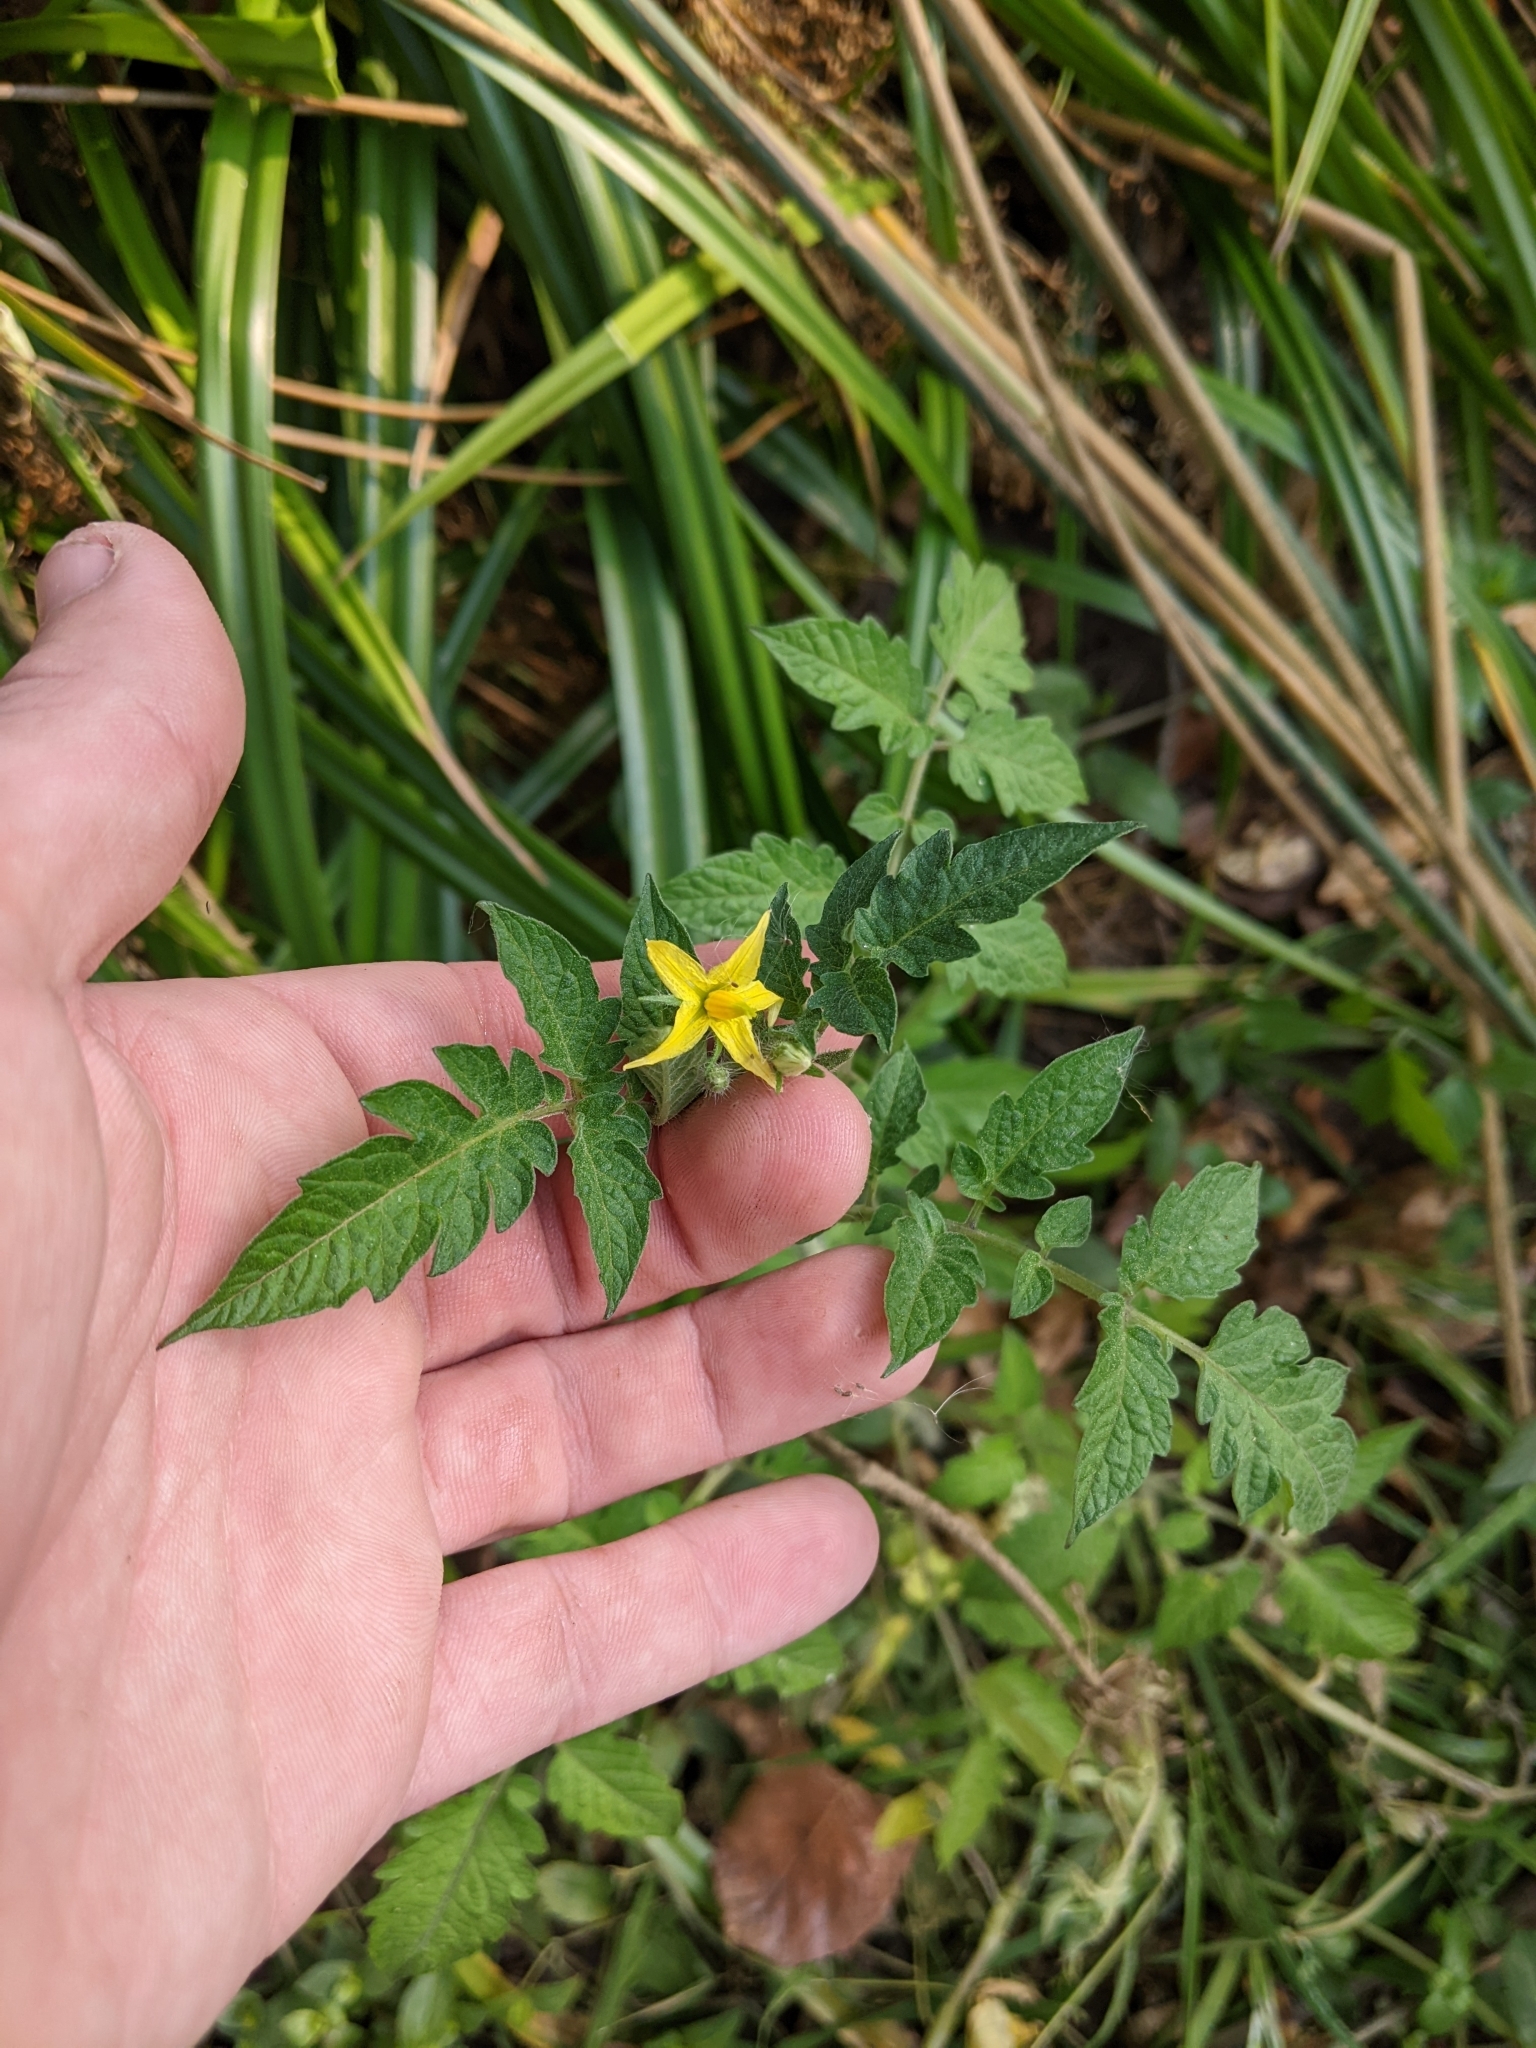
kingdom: Plantae
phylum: Tracheophyta
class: Magnoliopsida
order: Solanales
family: Solanaceae
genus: Solanum
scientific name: Solanum lycopersicum
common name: Garden tomato
